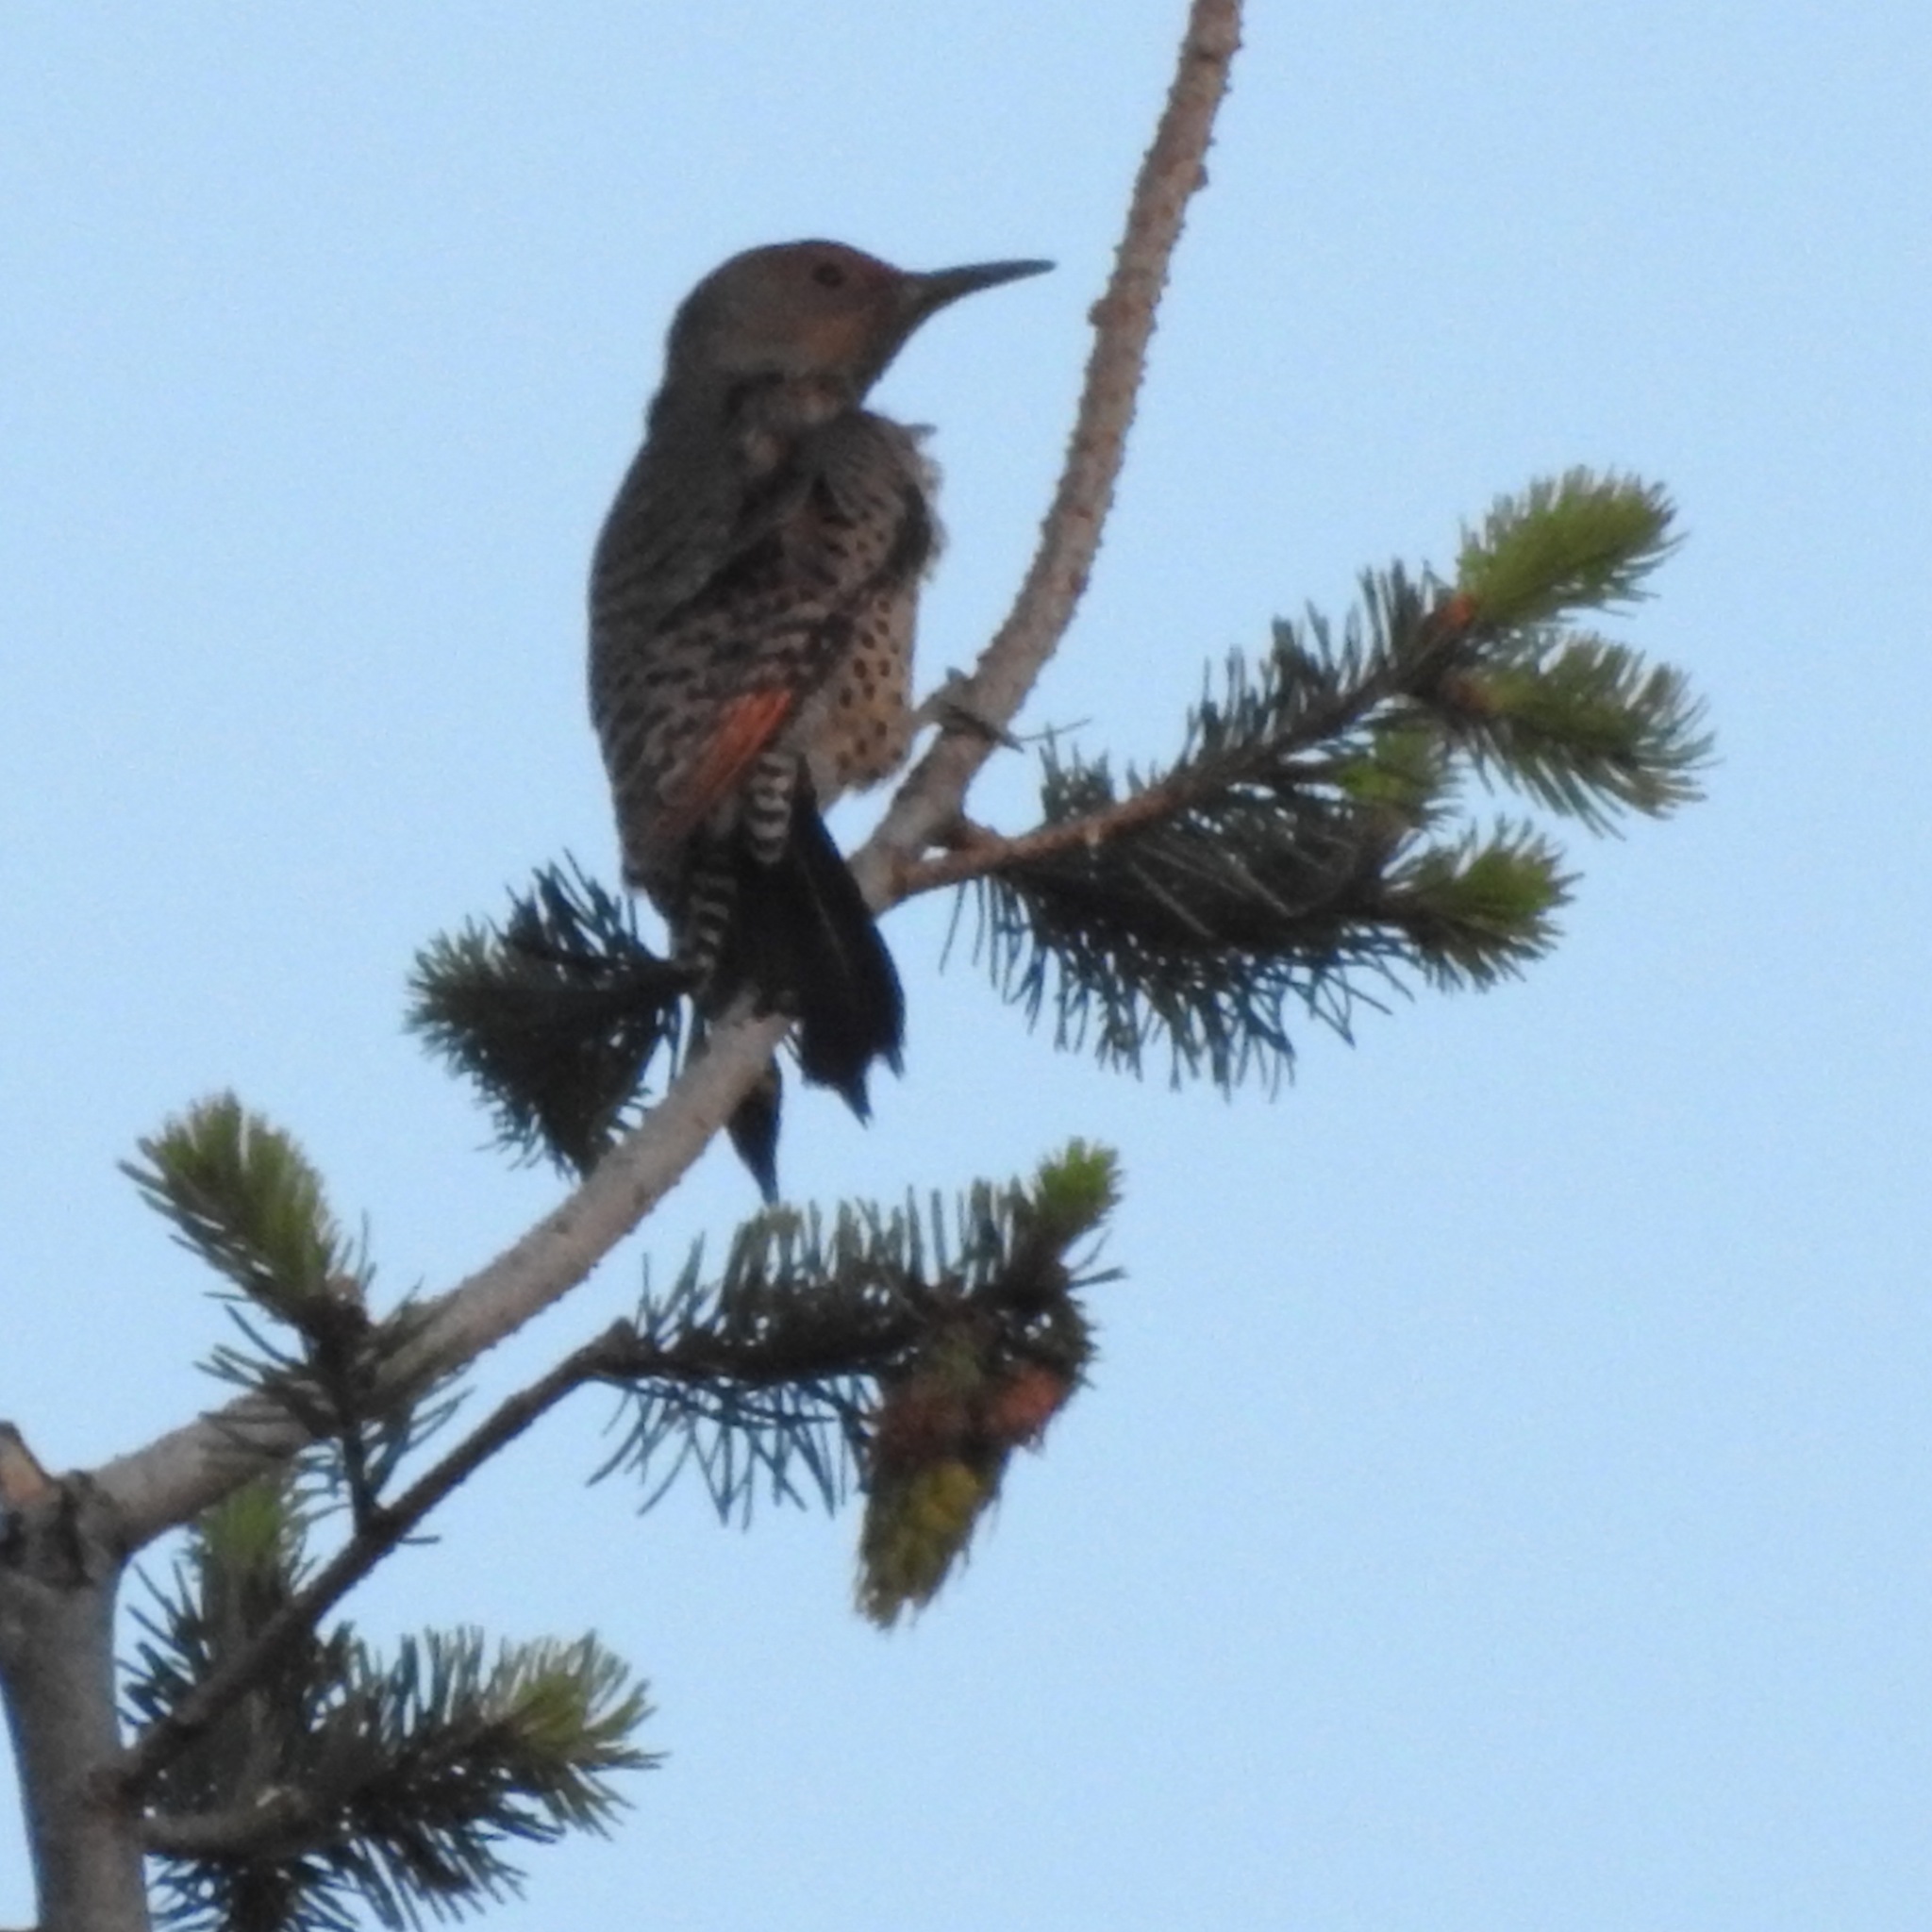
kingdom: Animalia
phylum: Chordata
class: Aves
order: Piciformes
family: Picidae
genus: Colaptes
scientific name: Colaptes auratus
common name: Northern flicker
